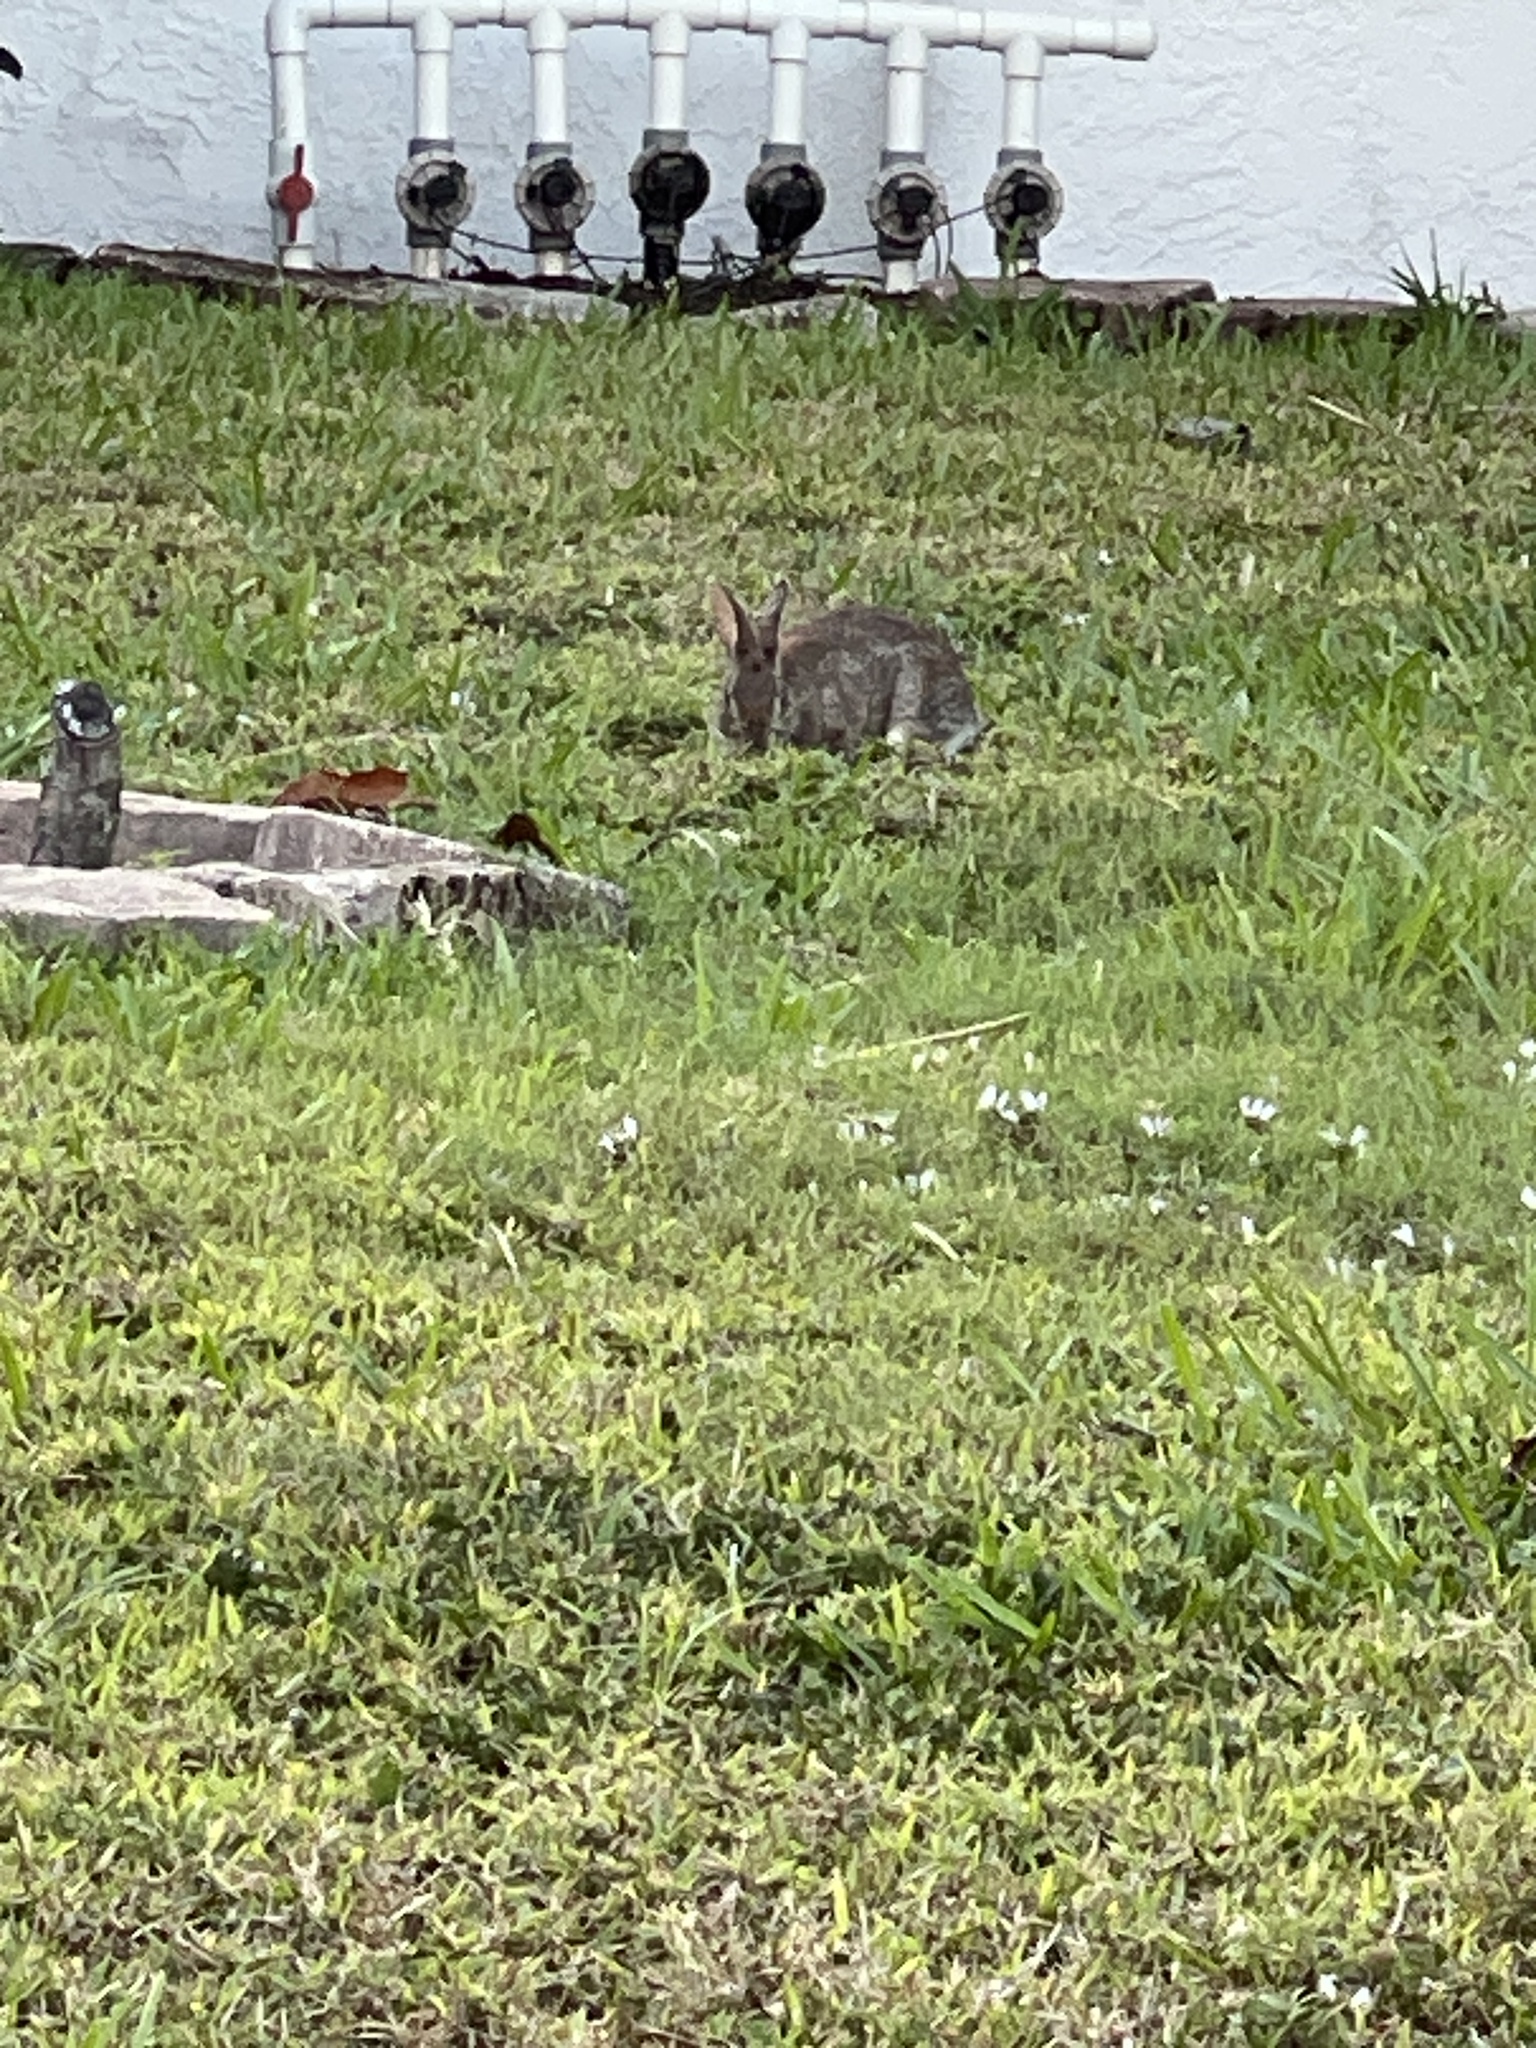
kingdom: Animalia
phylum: Chordata
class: Mammalia
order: Lagomorpha
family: Leporidae
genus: Sylvilagus
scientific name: Sylvilagus floridanus
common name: Eastern cottontail
